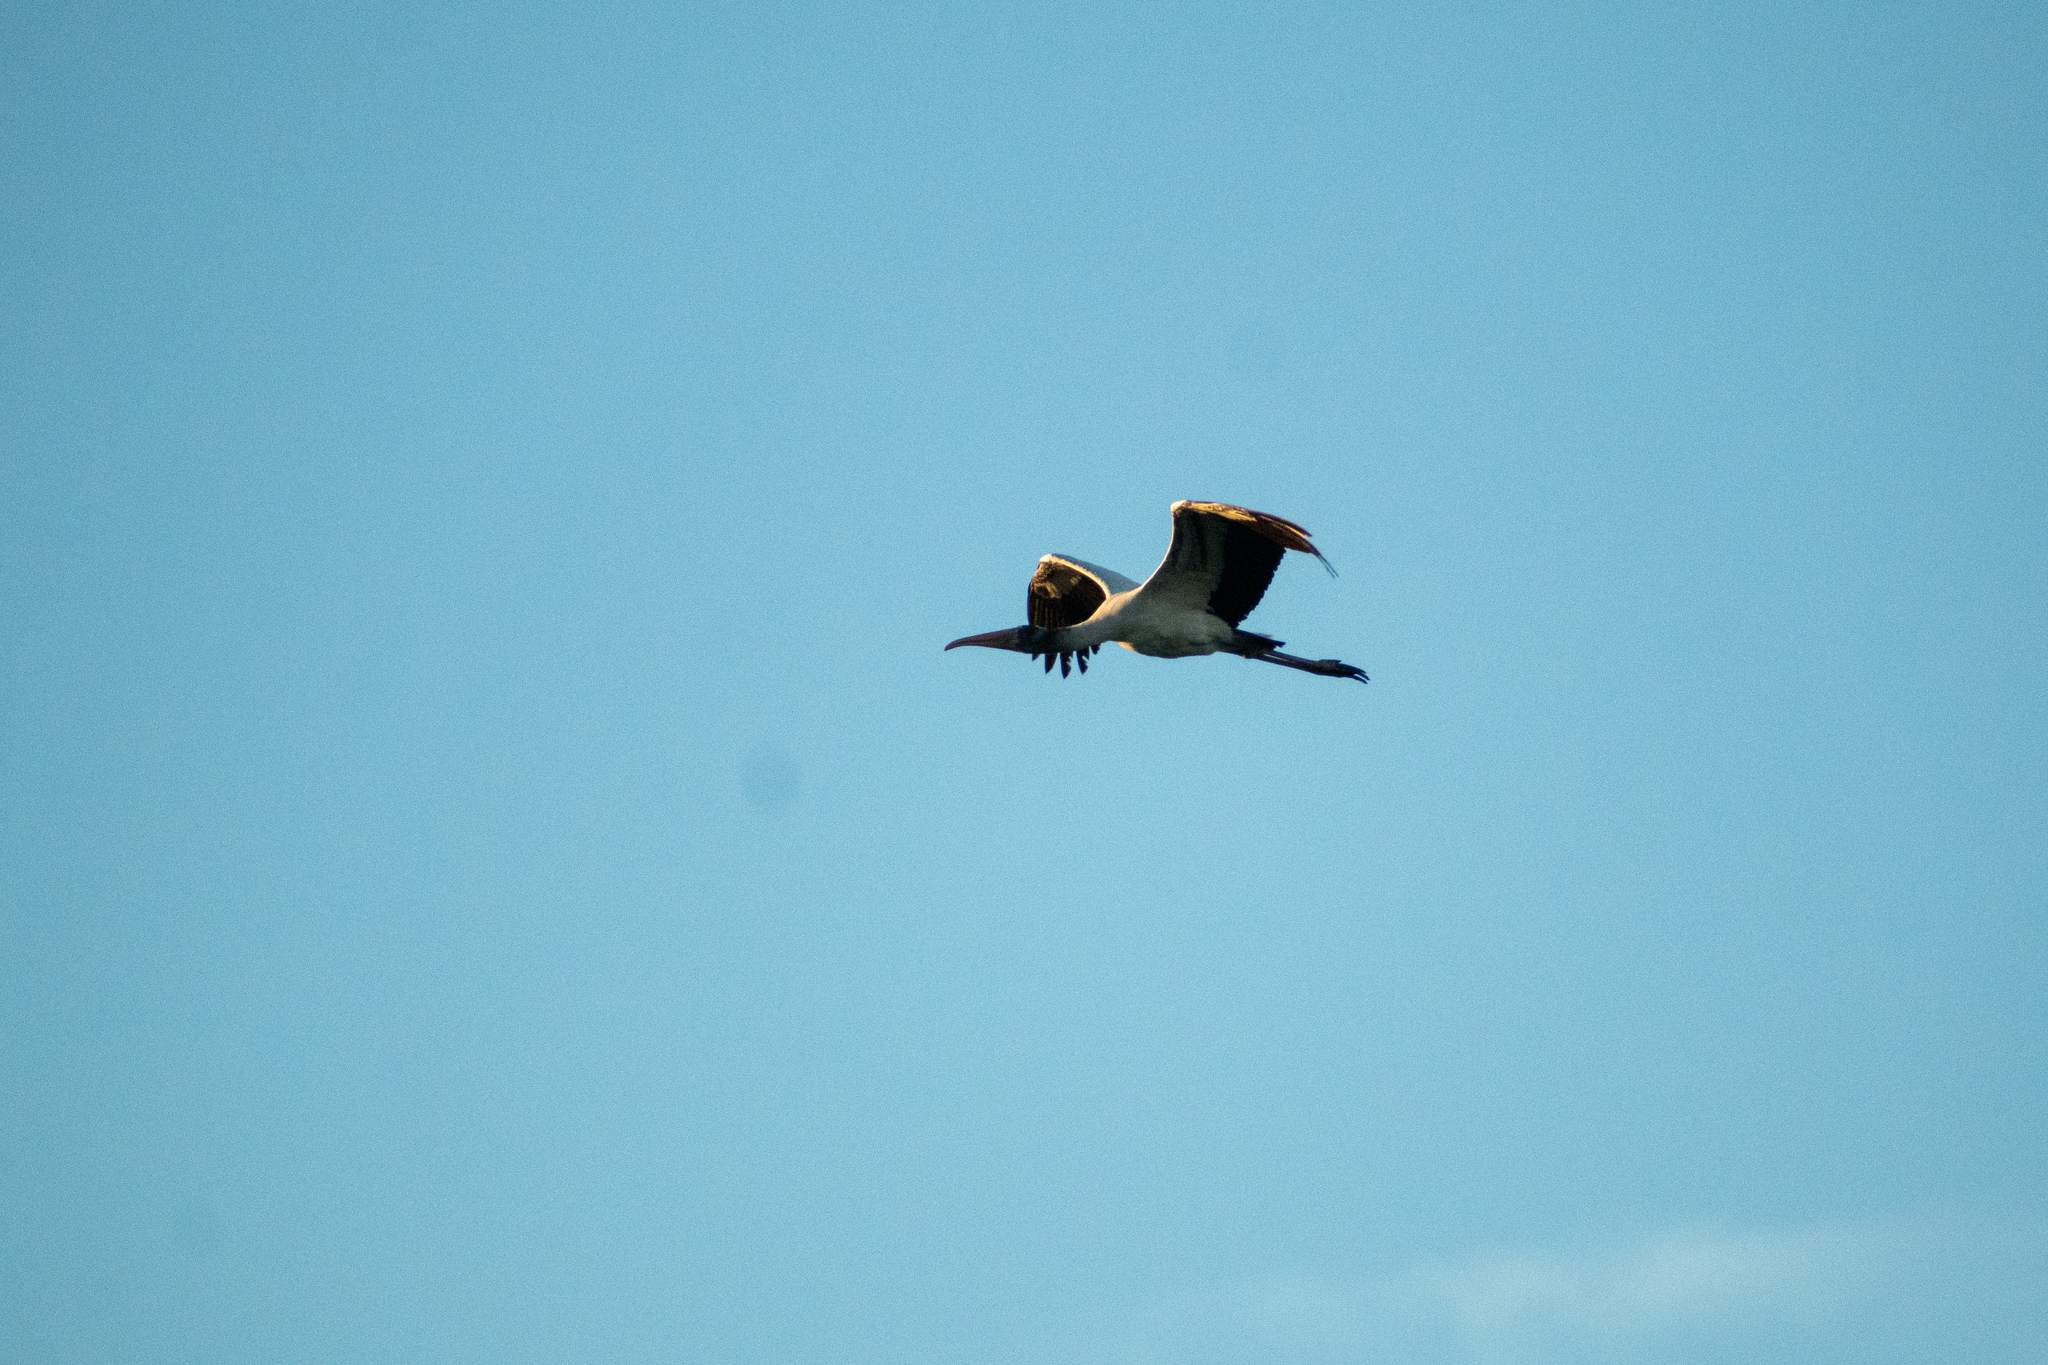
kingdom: Animalia
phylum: Chordata
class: Aves
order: Ciconiiformes
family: Ciconiidae
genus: Mycteria
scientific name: Mycteria americana
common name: Wood stork
